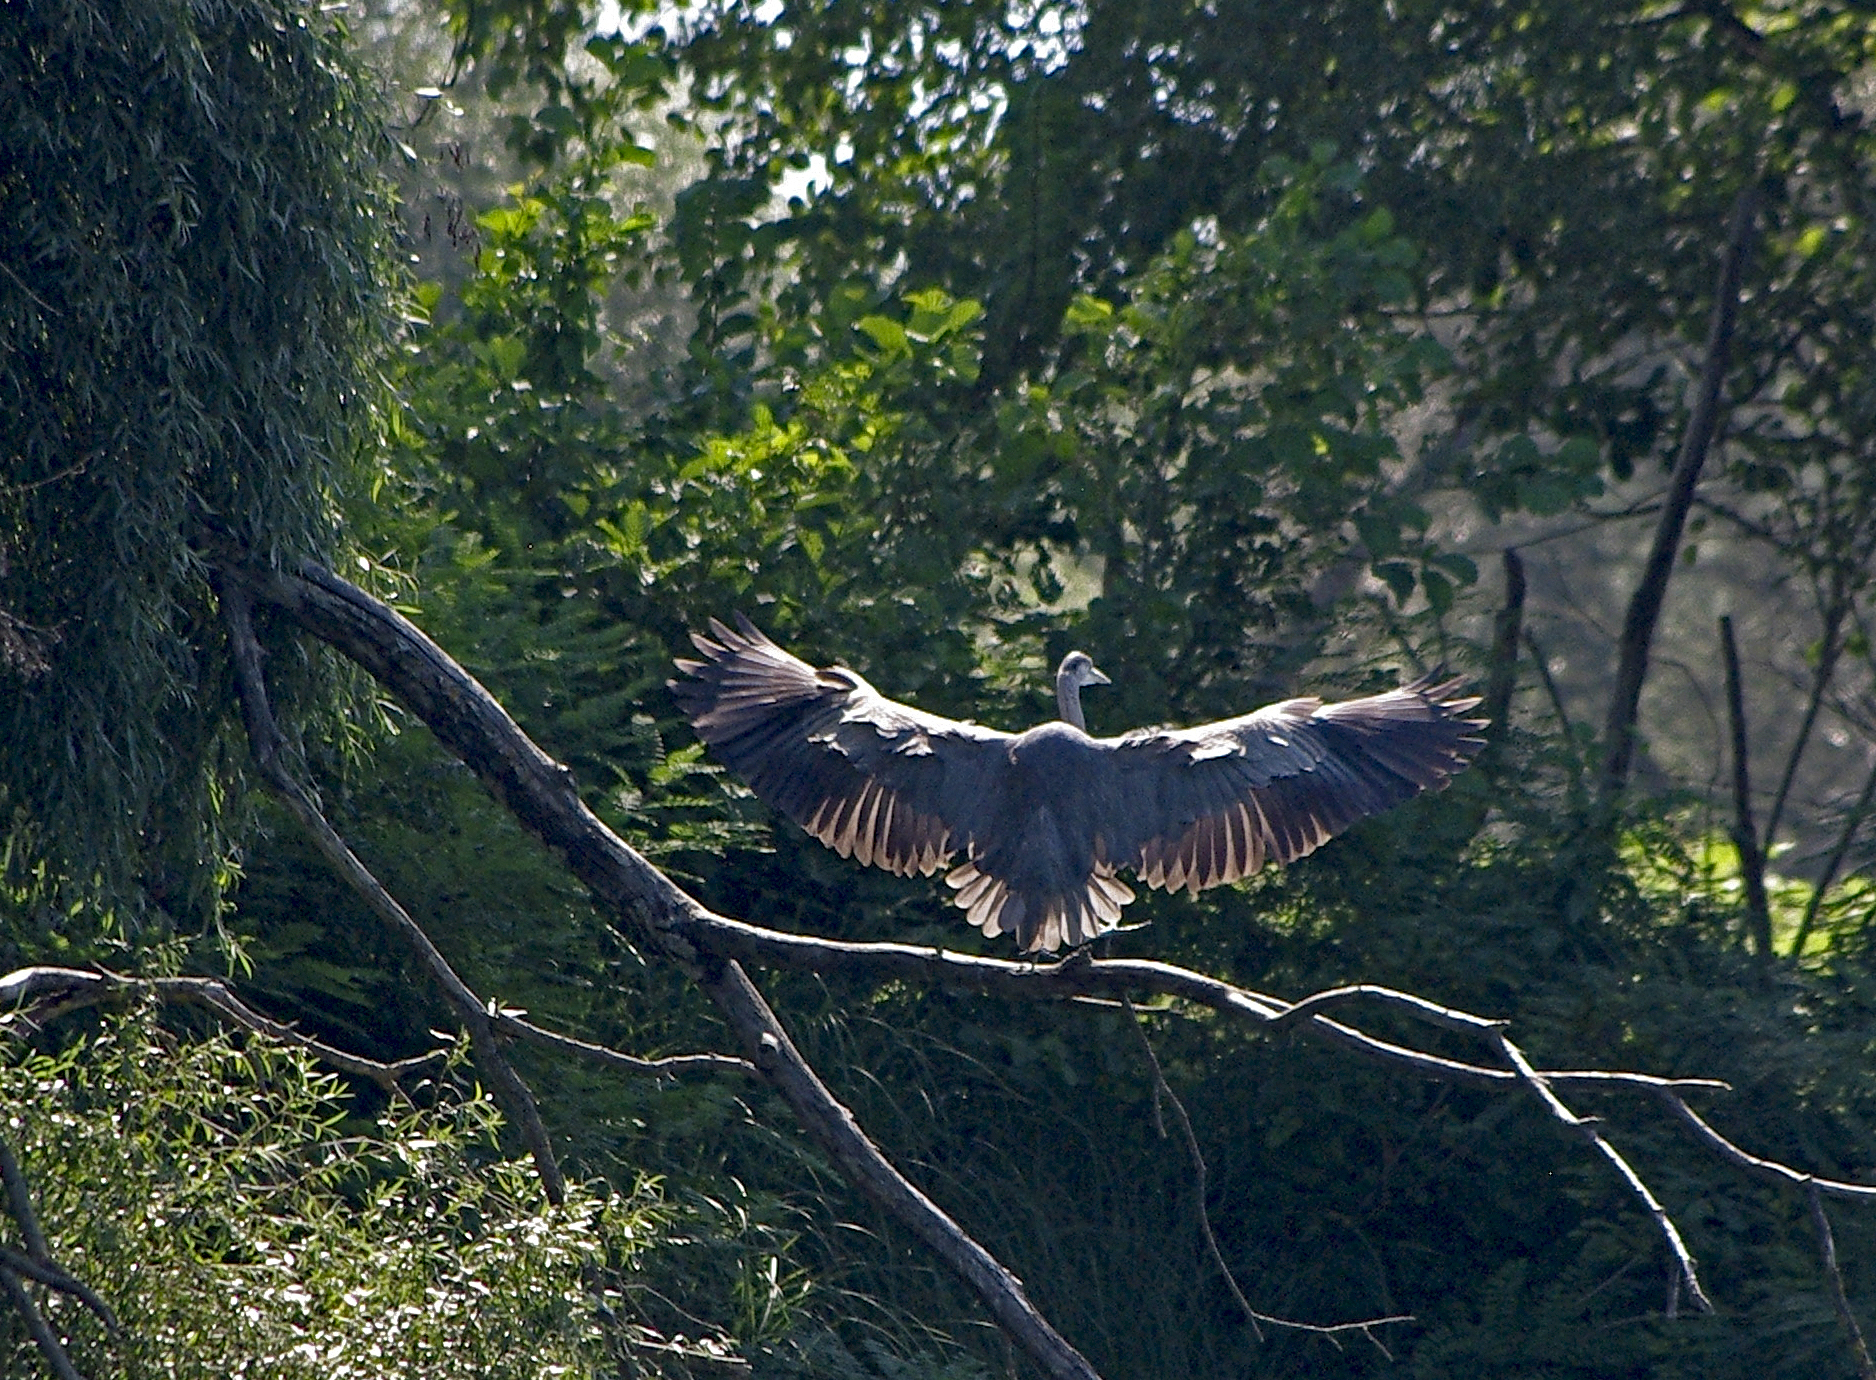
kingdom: Animalia
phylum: Chordata
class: Aves
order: Pelecaniformes
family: Ardeidae
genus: Ardea
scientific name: Ardea cinerea
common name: Grey heron
